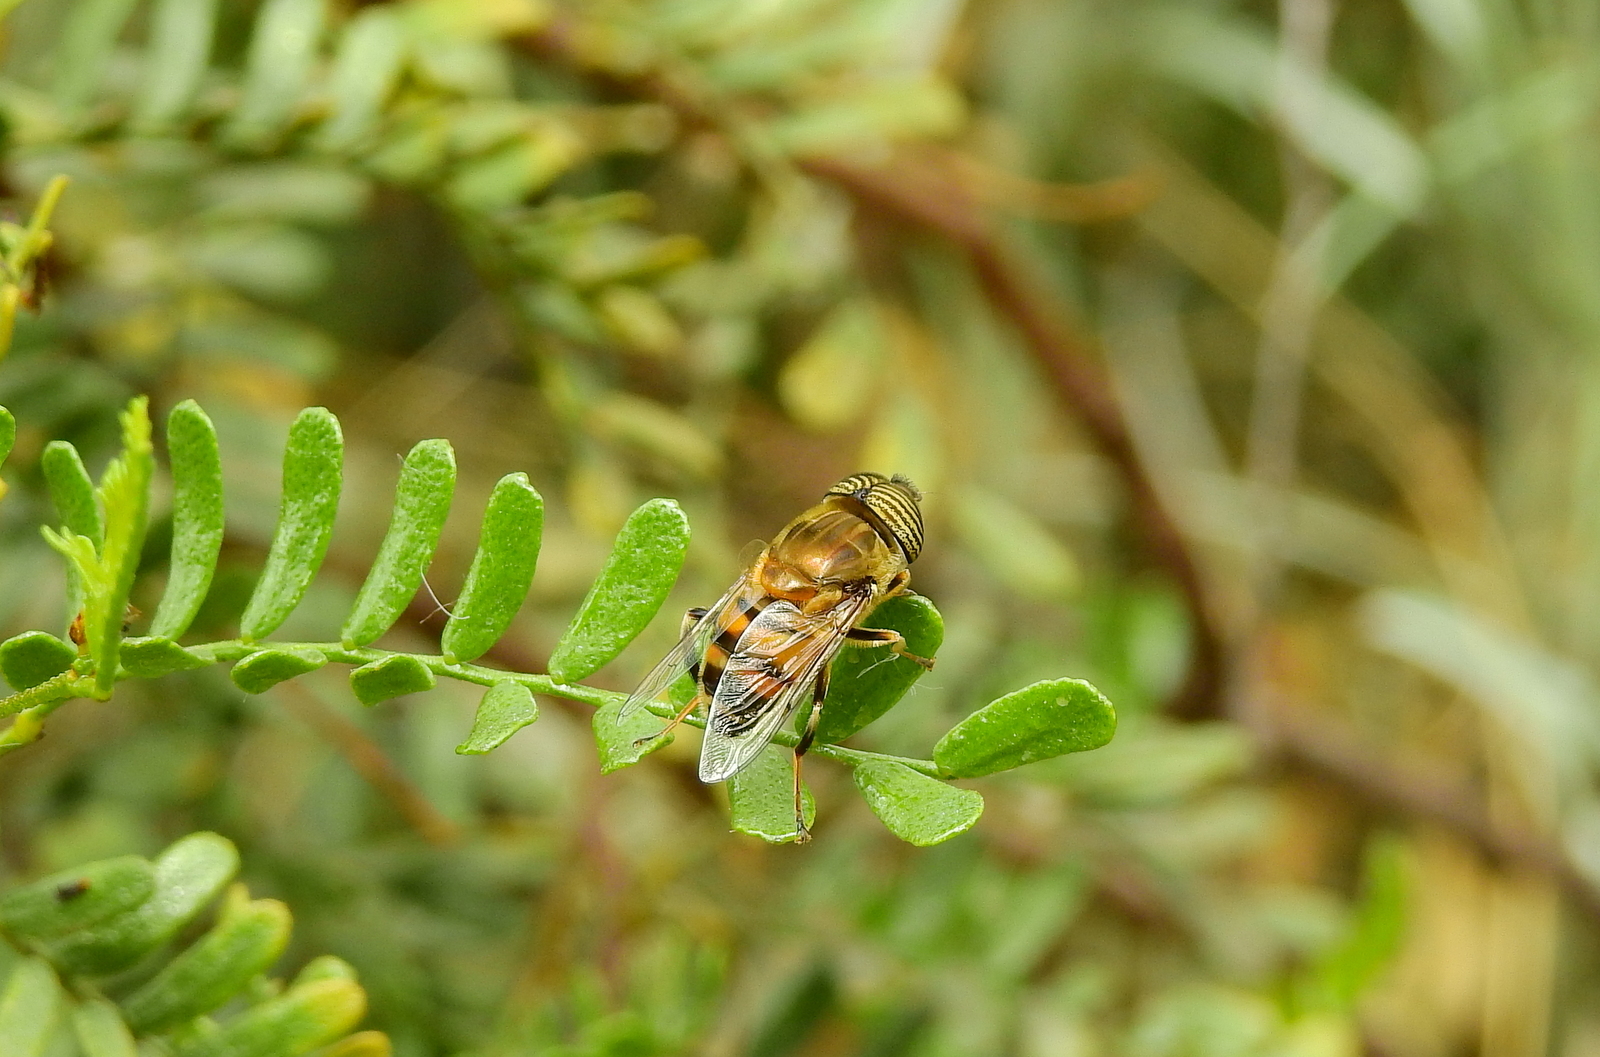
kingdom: Animalia
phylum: Arthropoda
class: Insecta
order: Diptera
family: Syrphidae
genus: Eristalinus
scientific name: Eristalinus taeniops
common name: Syrphid fly
